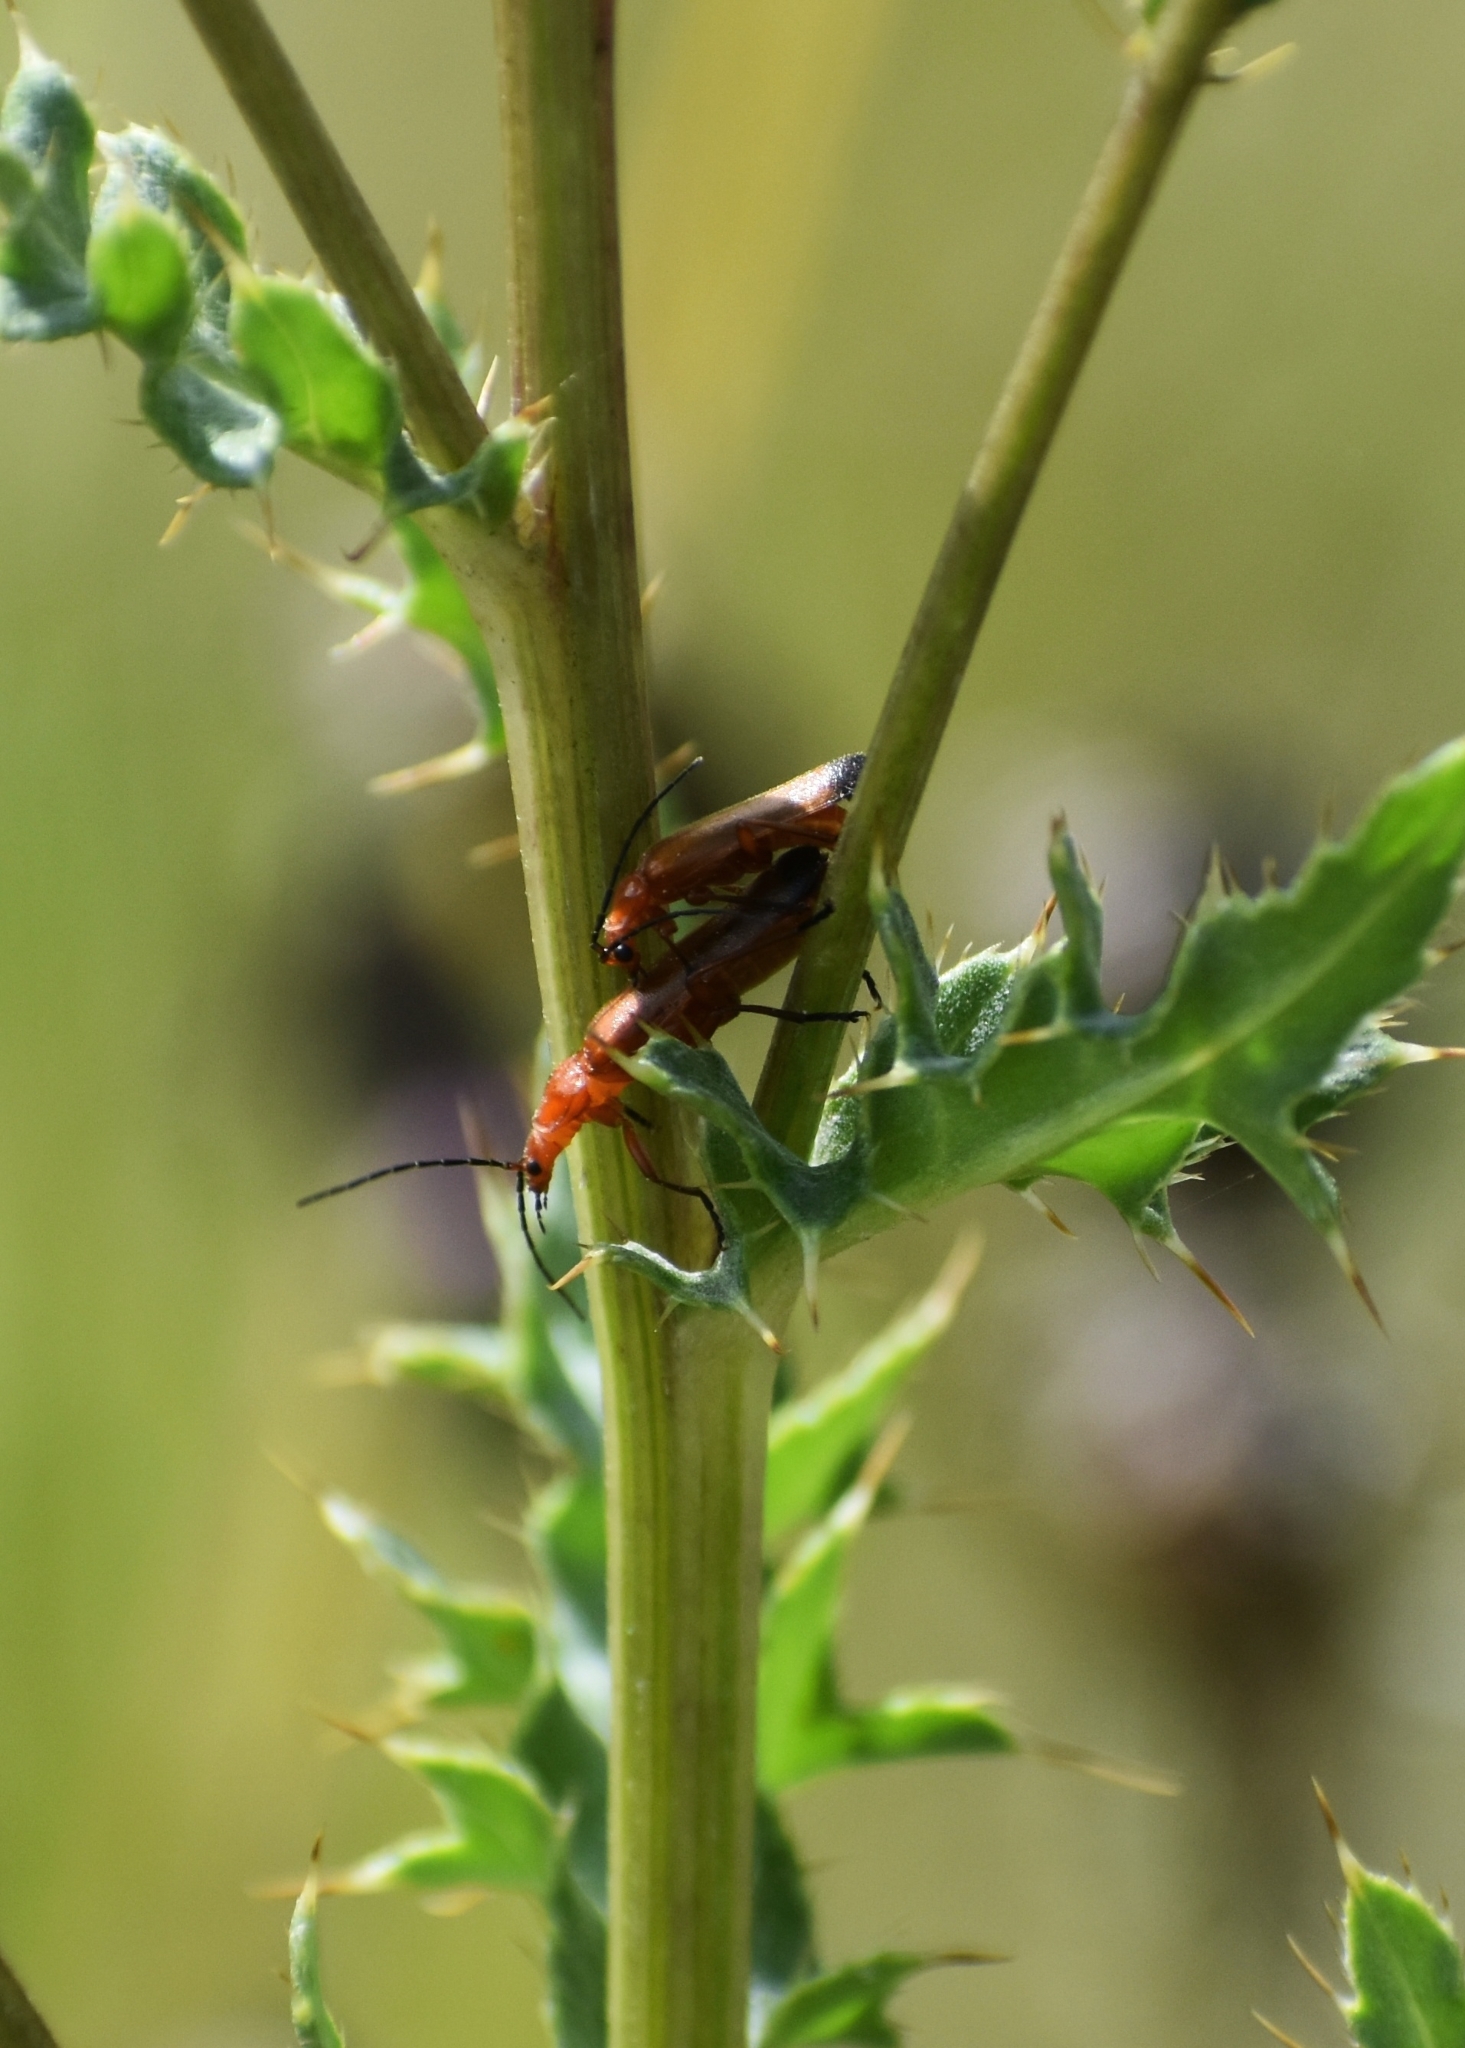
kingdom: Animalia
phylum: Arthropoda
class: Insecta
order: Coleoptera
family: Cantharidae
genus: Rhagonycha
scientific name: Rhagonycha fulva
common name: Common red soldier beetle
